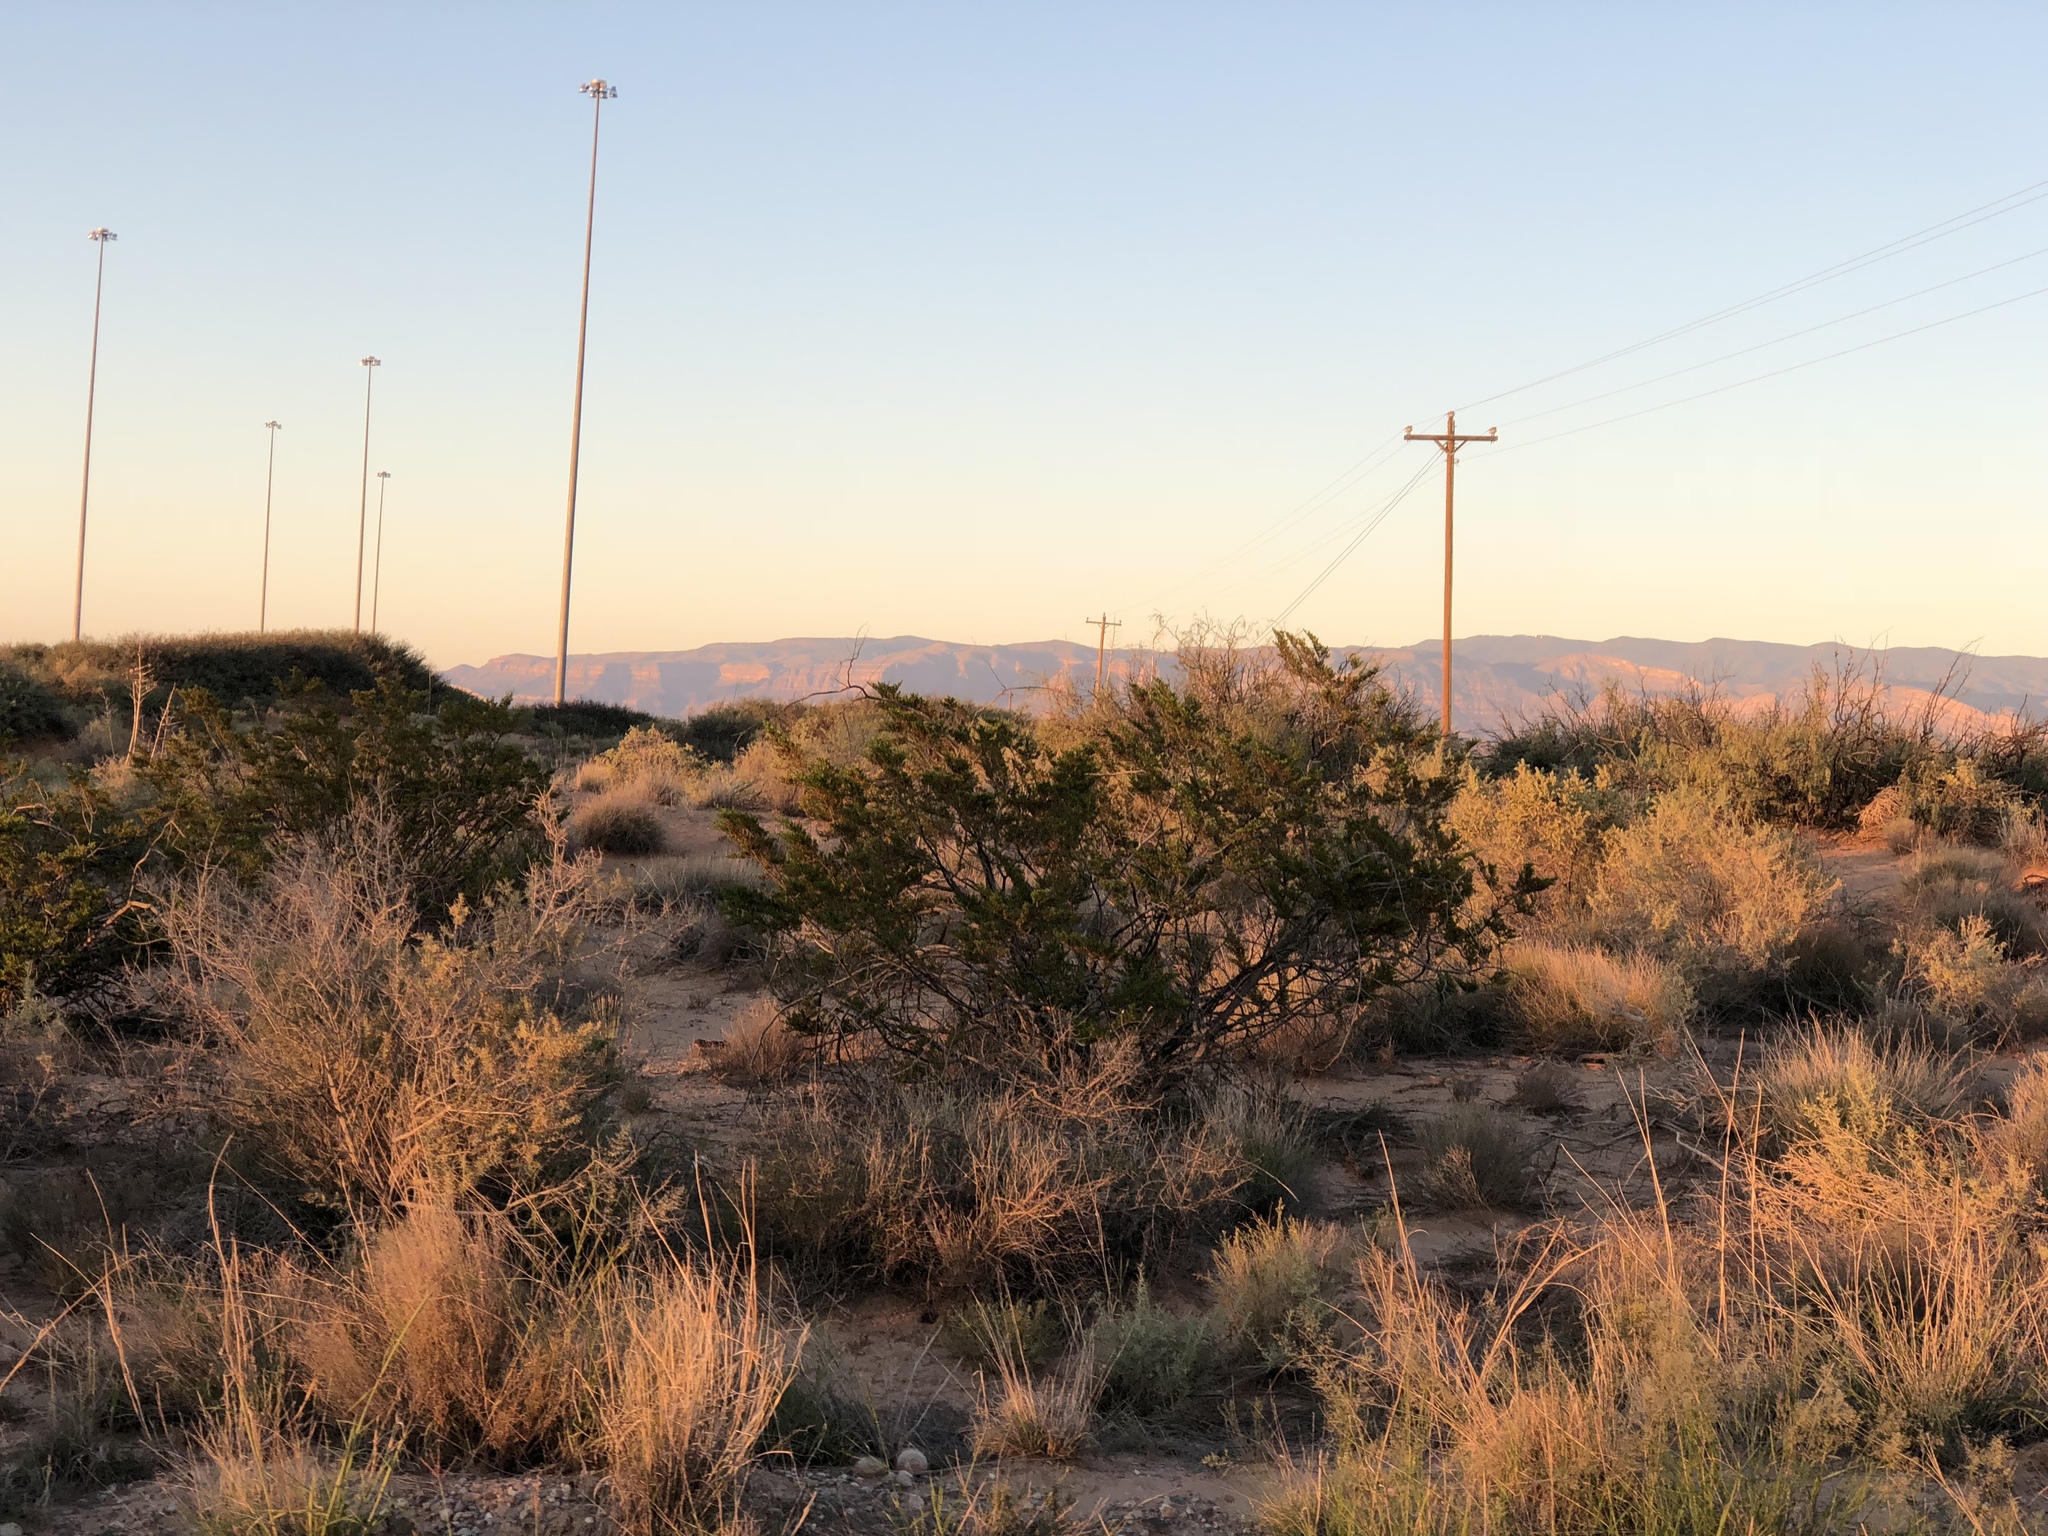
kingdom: Plantae
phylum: Tracheophyta
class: Magnoliopsida
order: Zygophyllales
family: Zygophyllaceae
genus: Larrea
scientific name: Larrea tridentata
